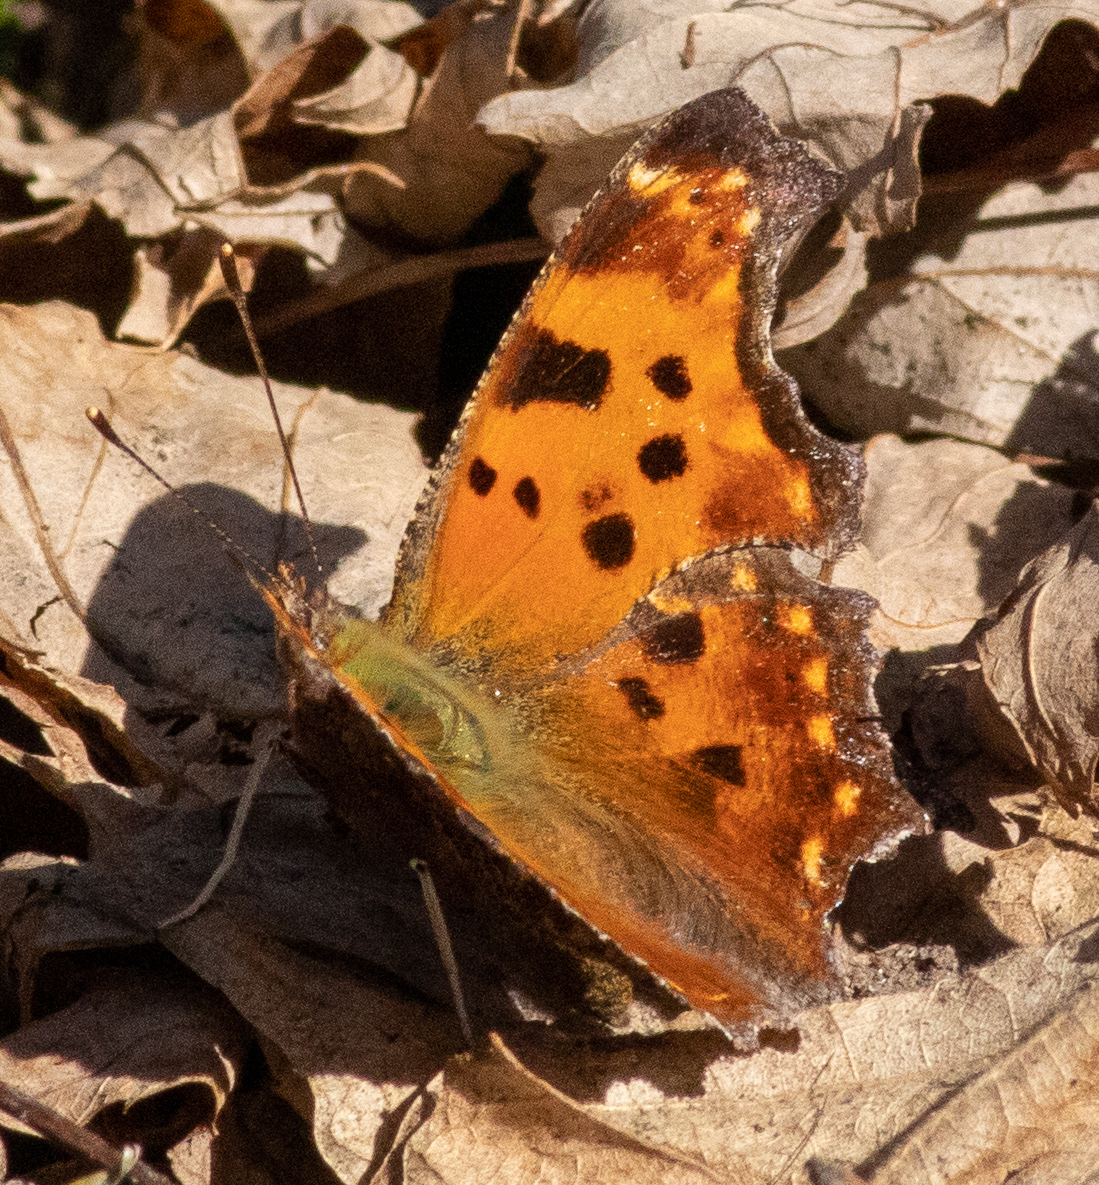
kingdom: Animalia
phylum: Arthropoda
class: Insecta
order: Lepidoptera
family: Nymphalidae
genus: Polygonia
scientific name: Polygonia comma
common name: Eastern comma
